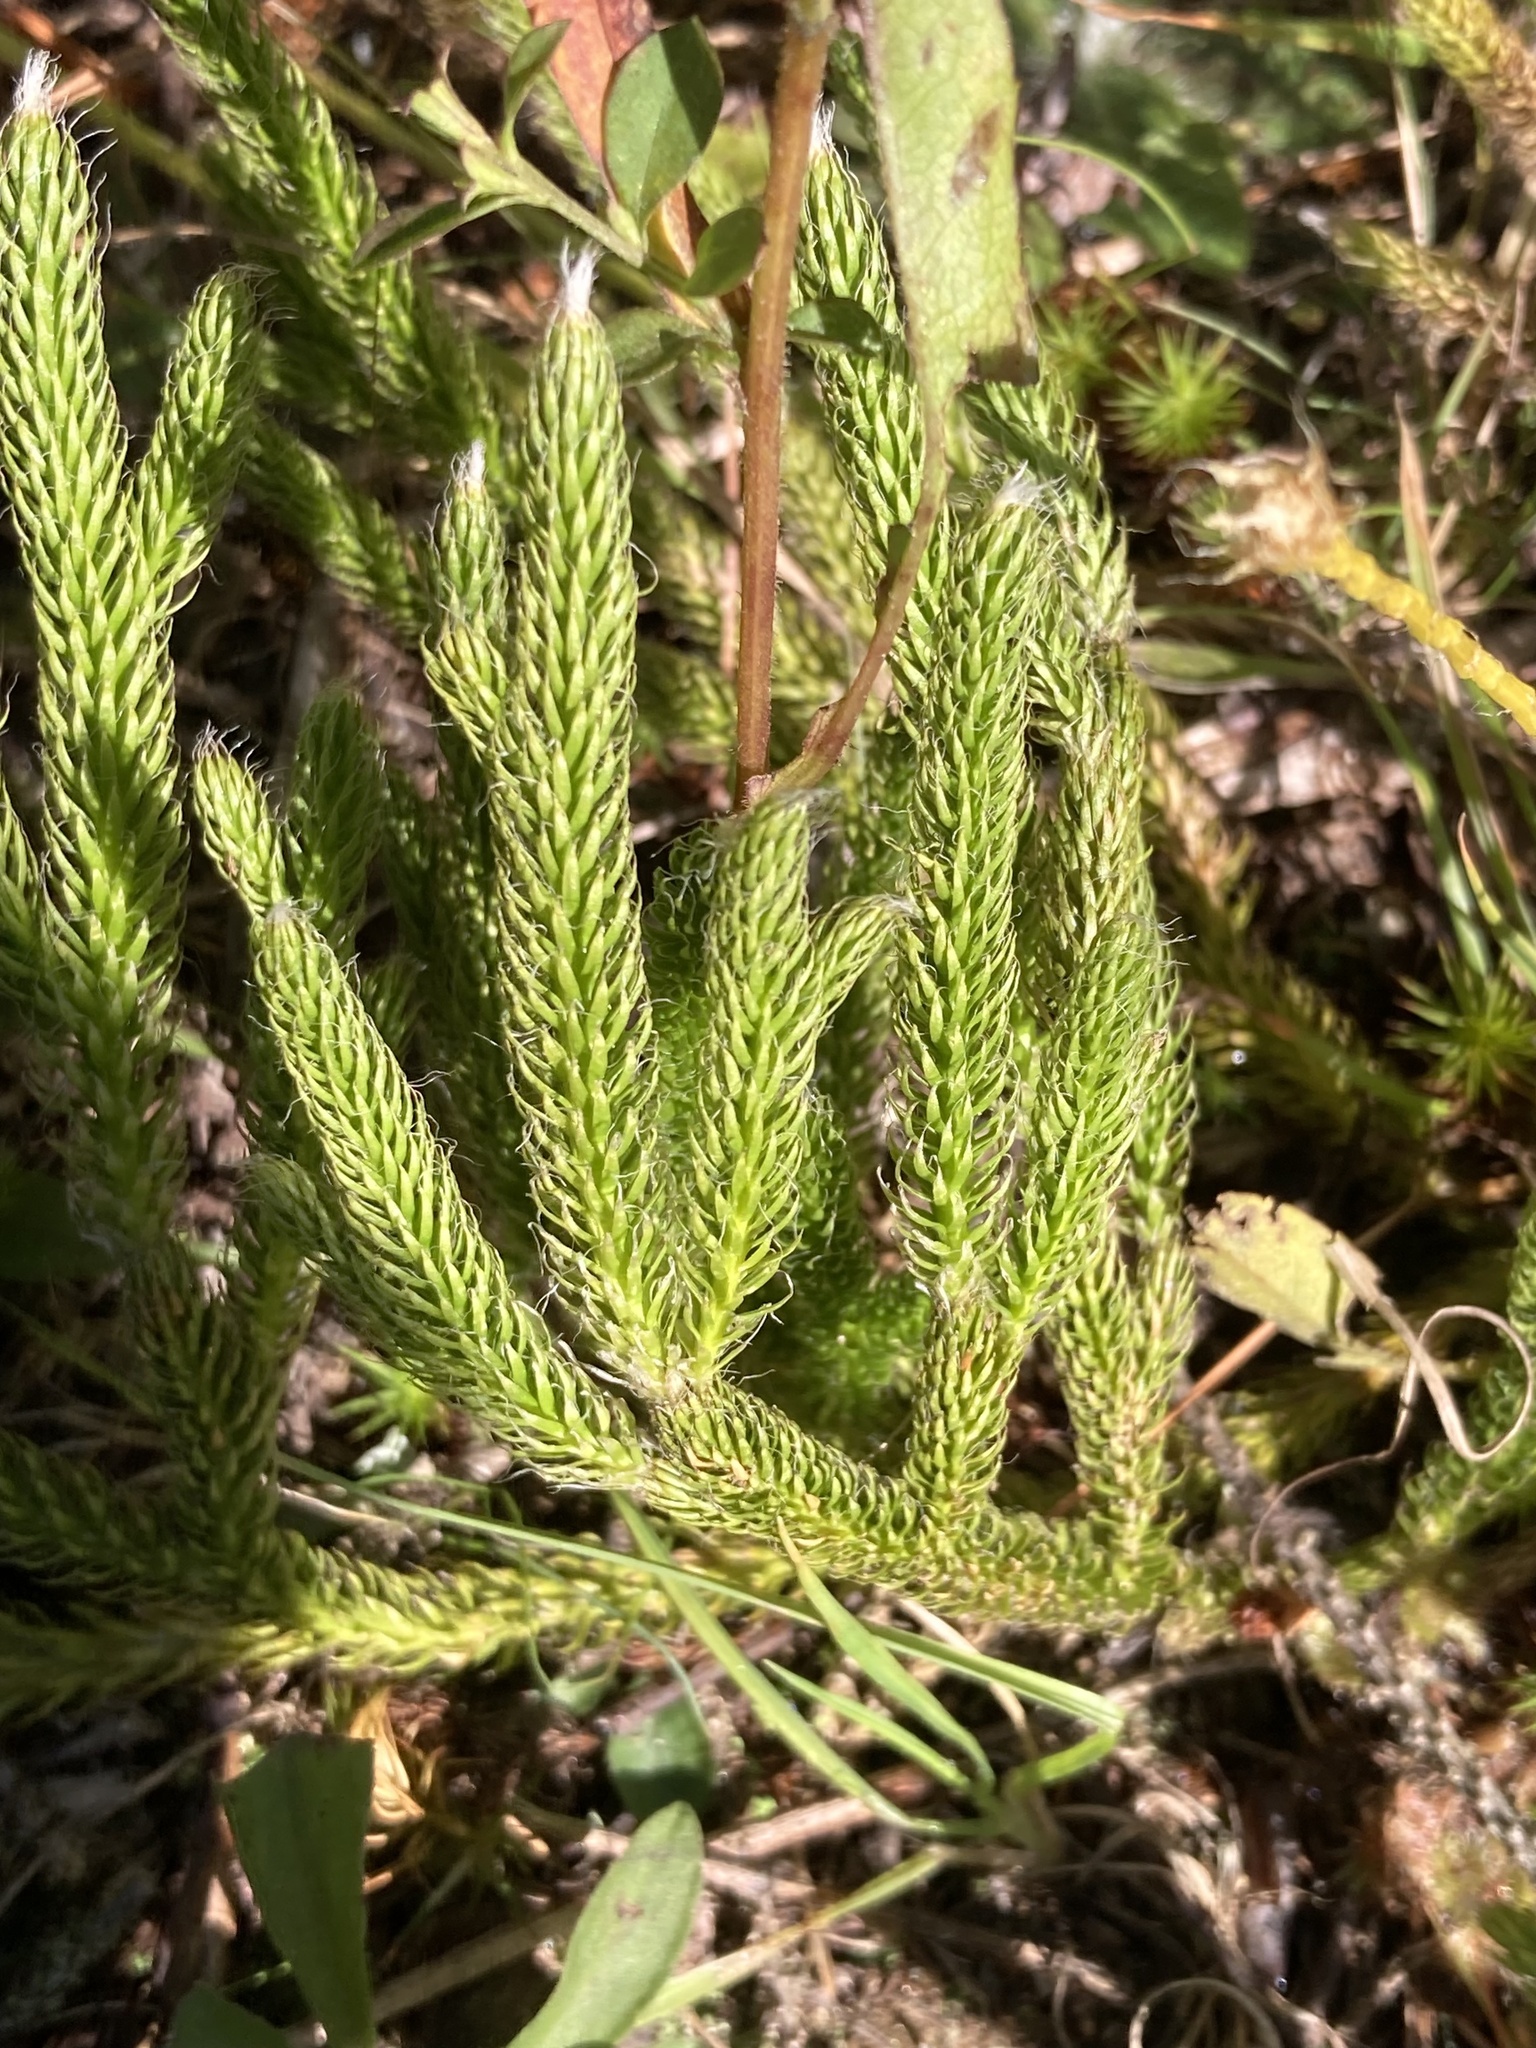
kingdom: Plantae
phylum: Tracheophyta
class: Lycopodiopsida
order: Lycopodiales
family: Lycopodiaceae
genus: Lycopodium
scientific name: Lycopodium lagopus
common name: One-cone clubmoss
